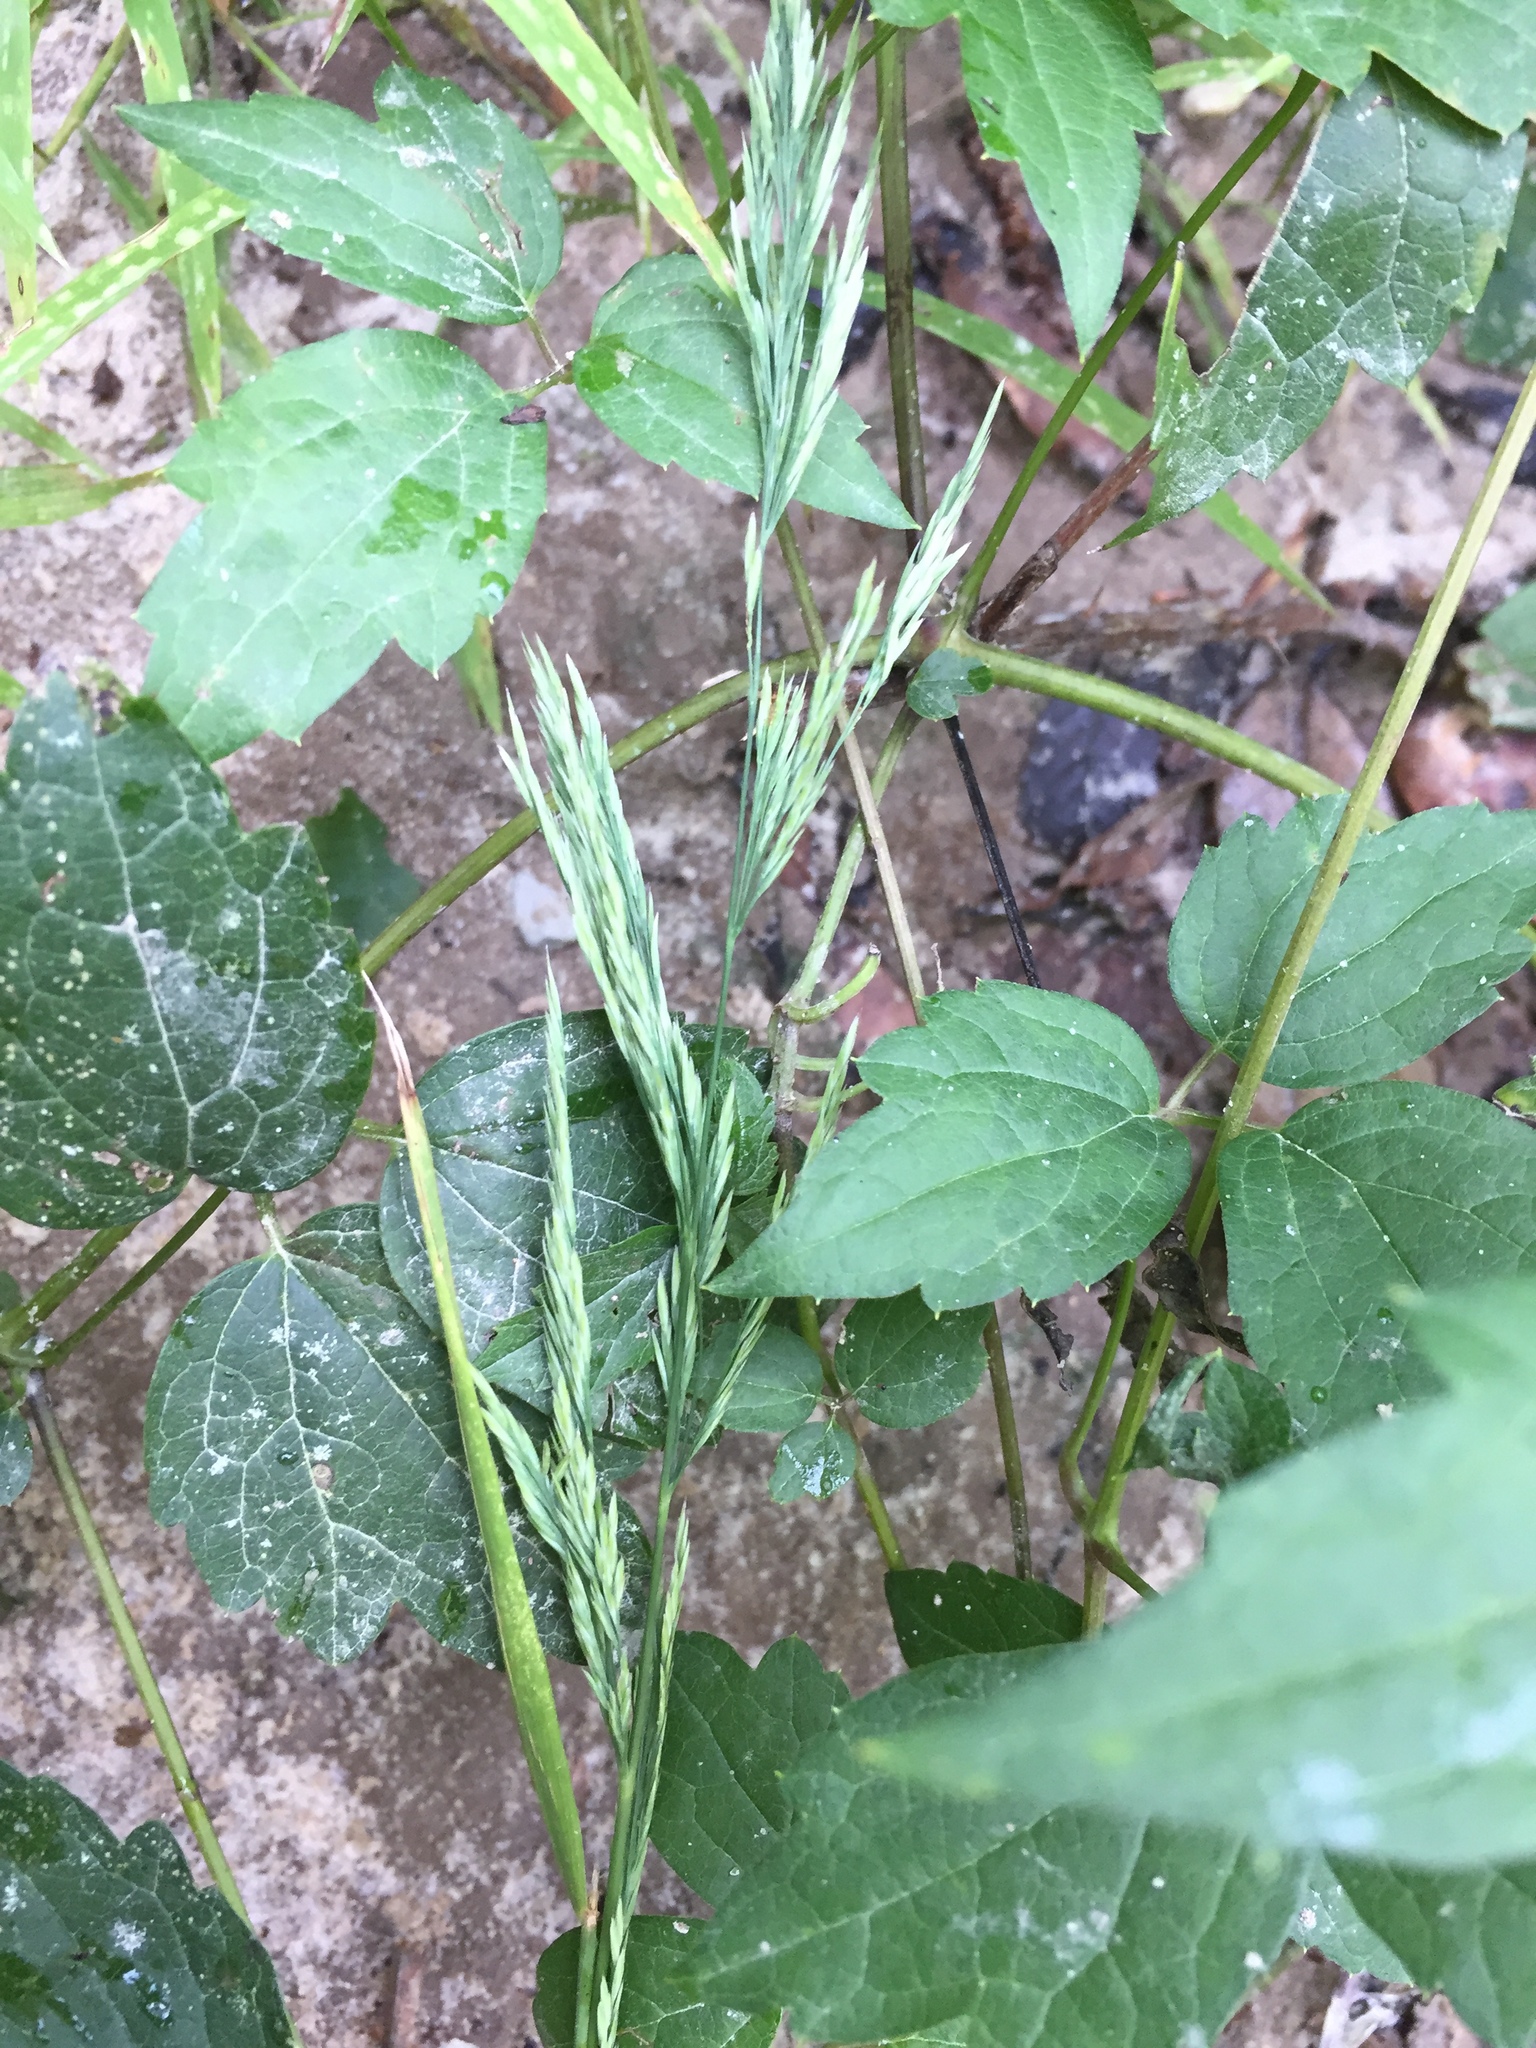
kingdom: Plantae
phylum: Tracheophyta
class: Liliopsida
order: Poales
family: Poaceae
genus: Cinna
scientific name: Cinna arundinacea
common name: Stout woodreed
